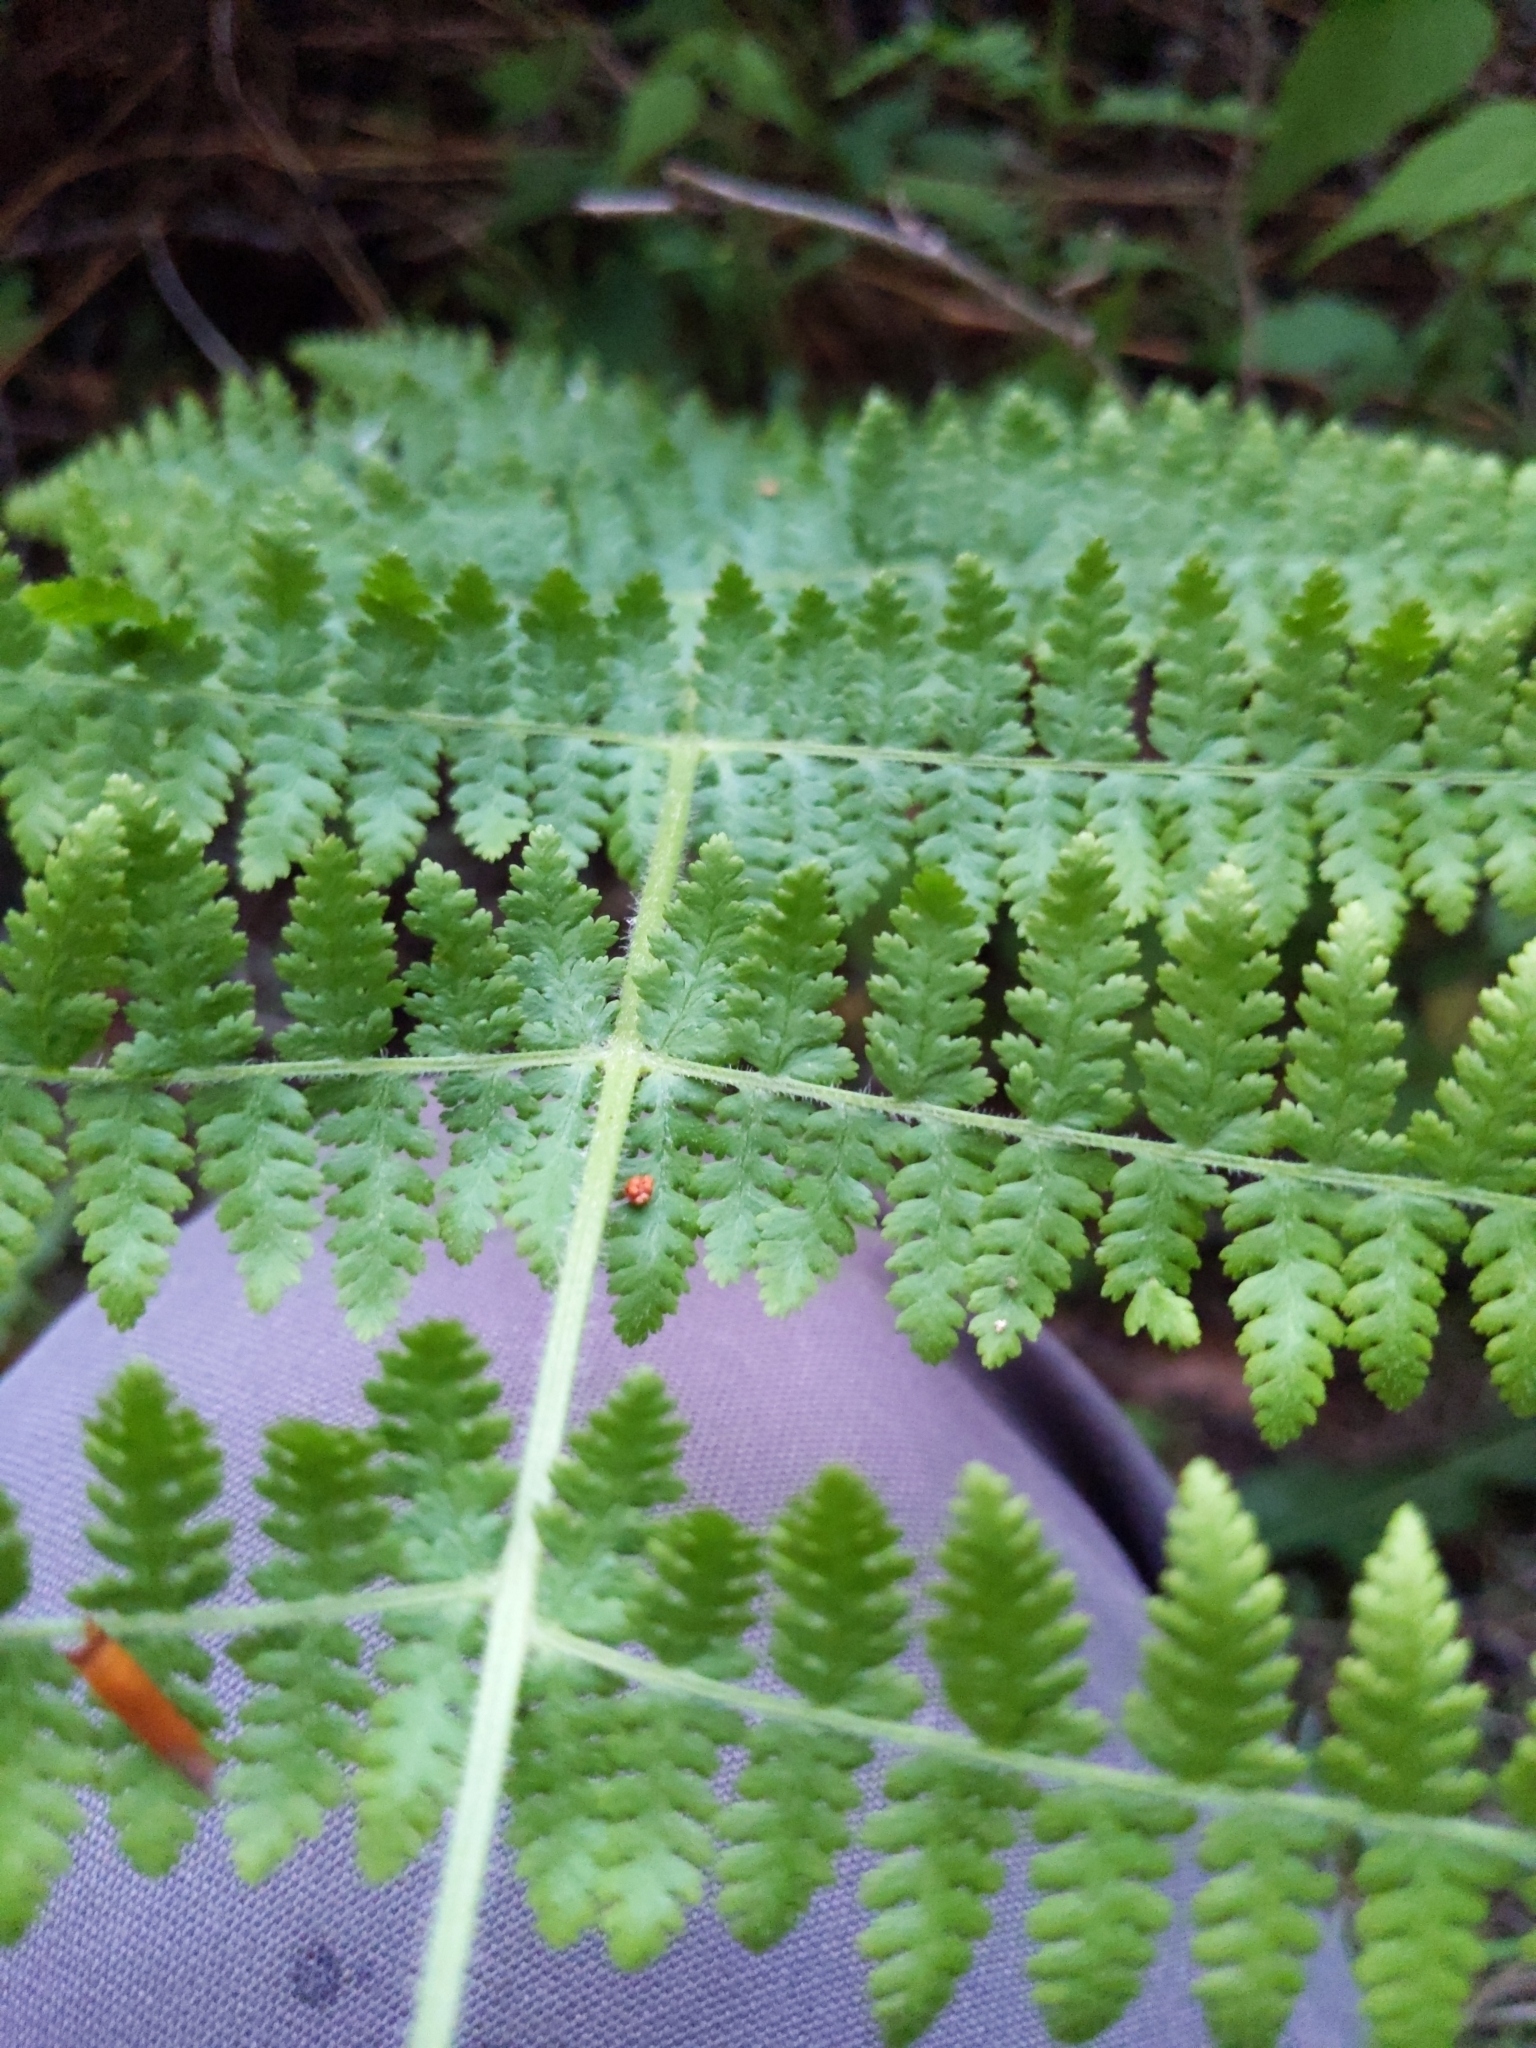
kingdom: Plantae
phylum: Tracheophyta
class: Polypodiopsida
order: Polypodiales
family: Dennstaedtiaceae
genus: Sitobolium
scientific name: Sitobolium punctilobum
